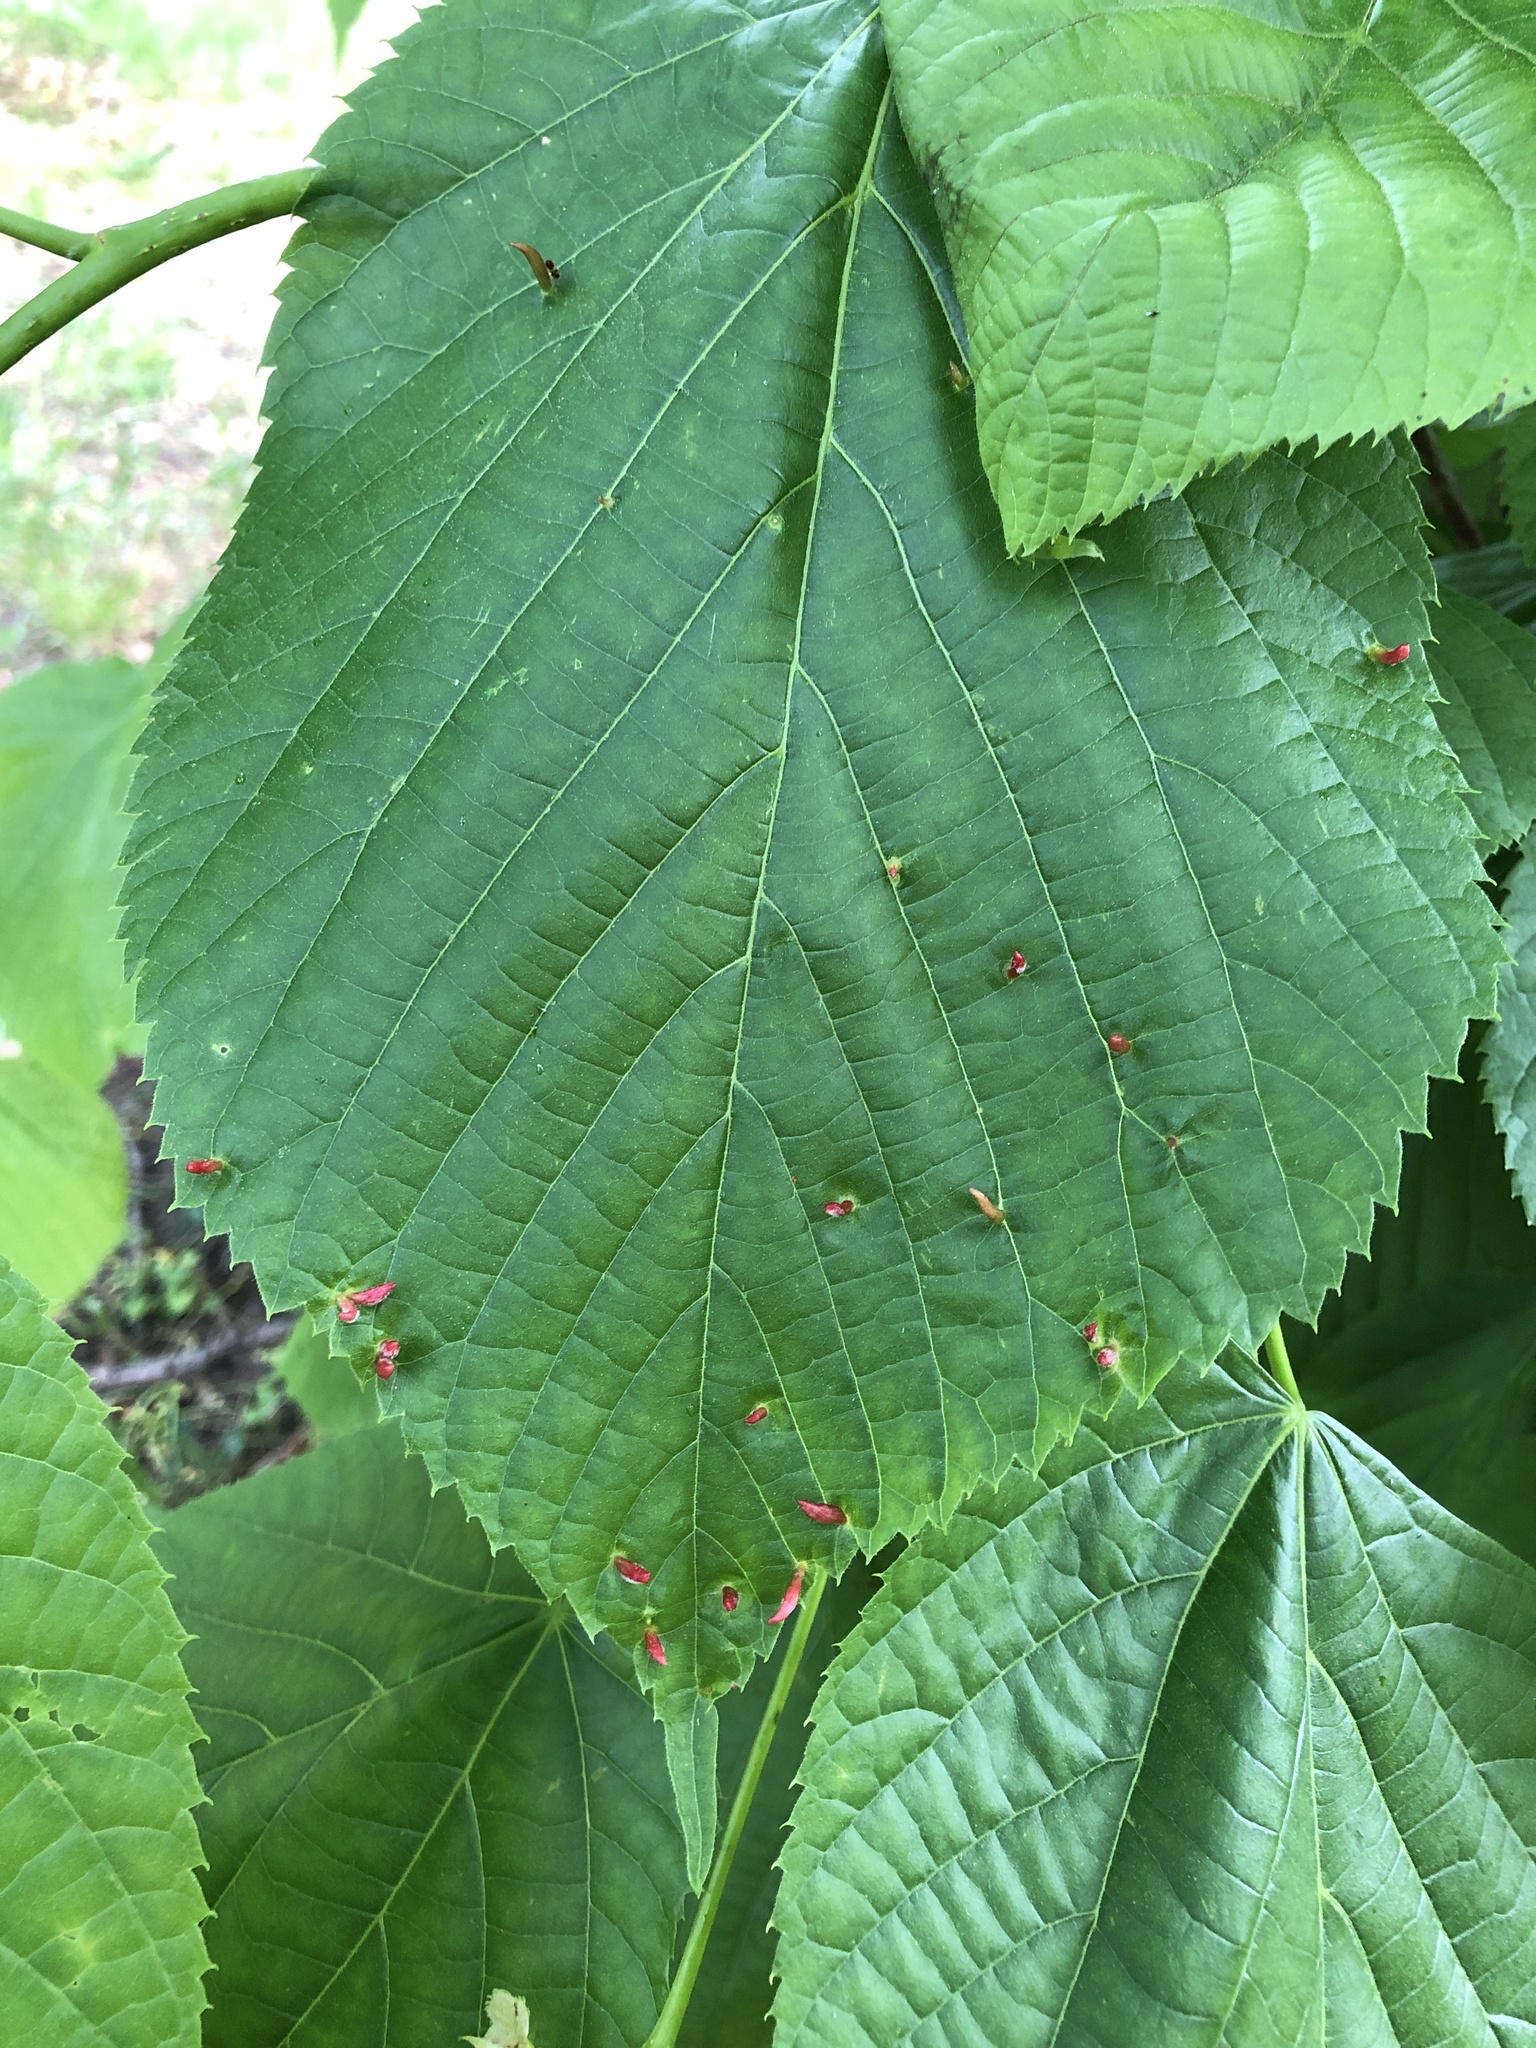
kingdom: Animalia
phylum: Arthropoda
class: Arachnida
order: Trombidiformes
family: Eriophyidae
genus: Eriophyes
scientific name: Eriophyes tiliae
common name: Red nail gall mite
